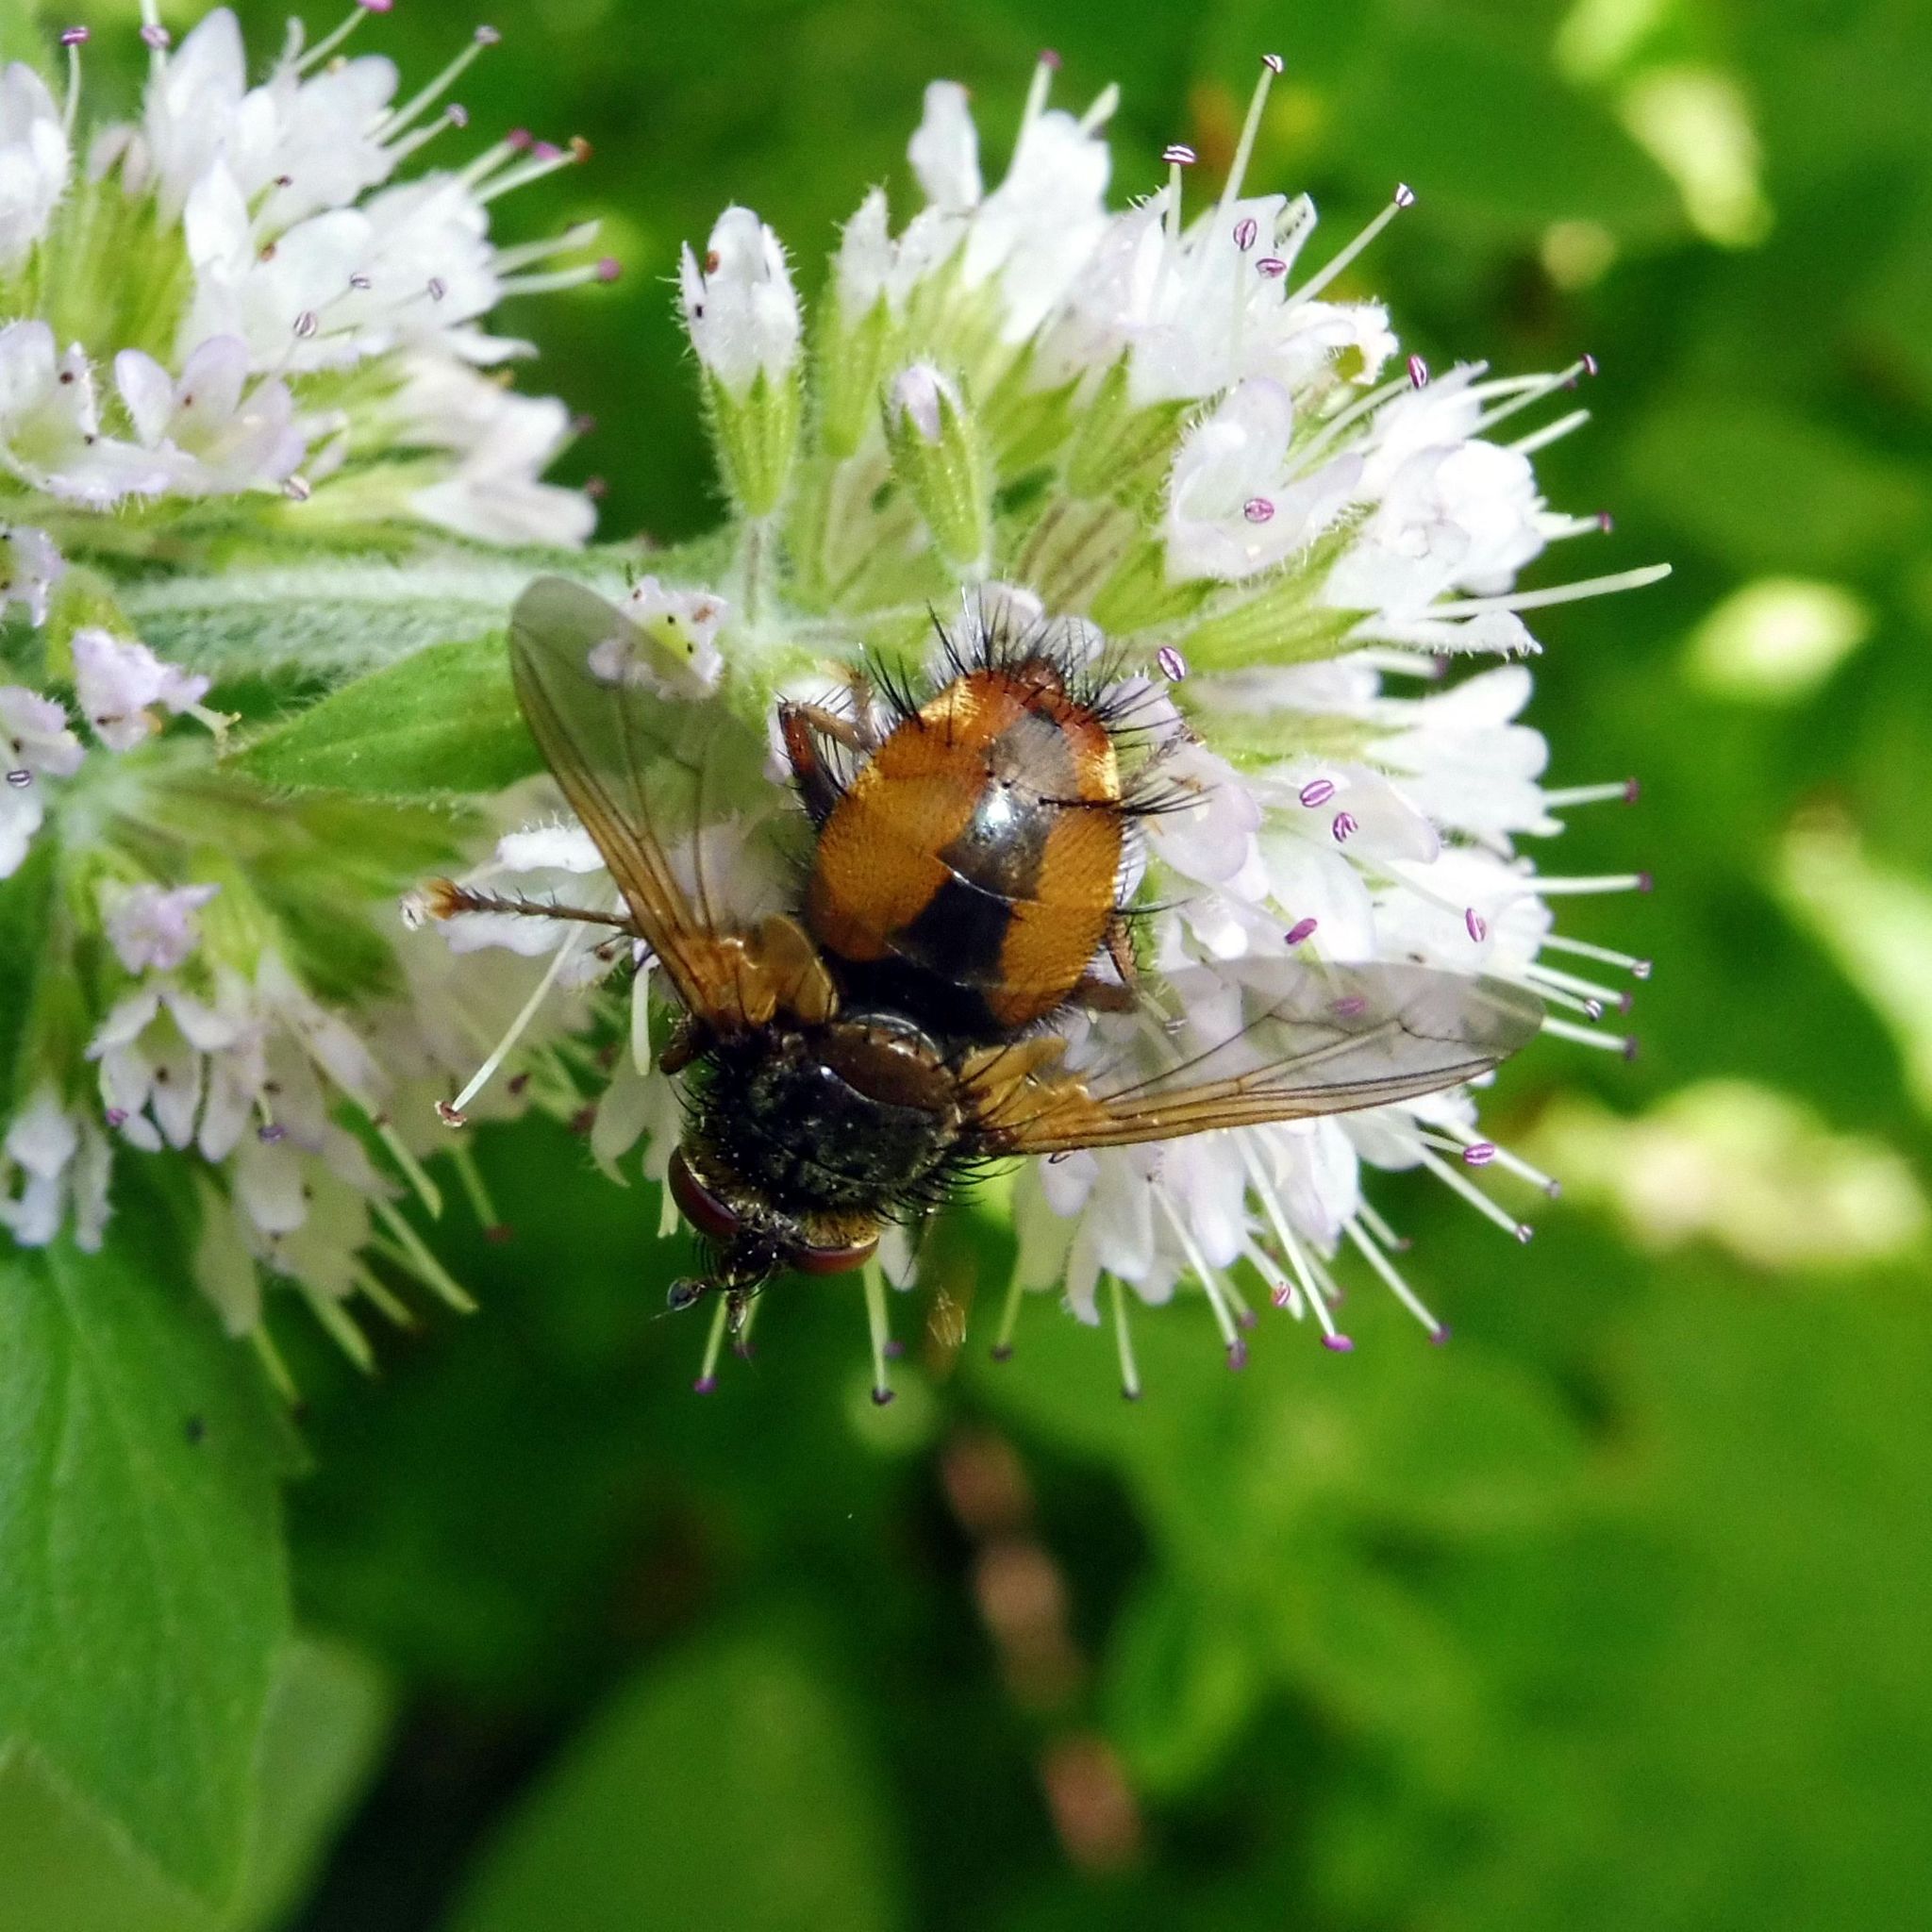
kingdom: Animalia
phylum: Arthropoda
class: Insecta
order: Diptera
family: Tachinidae
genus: Tachina
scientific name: Tachina fera
